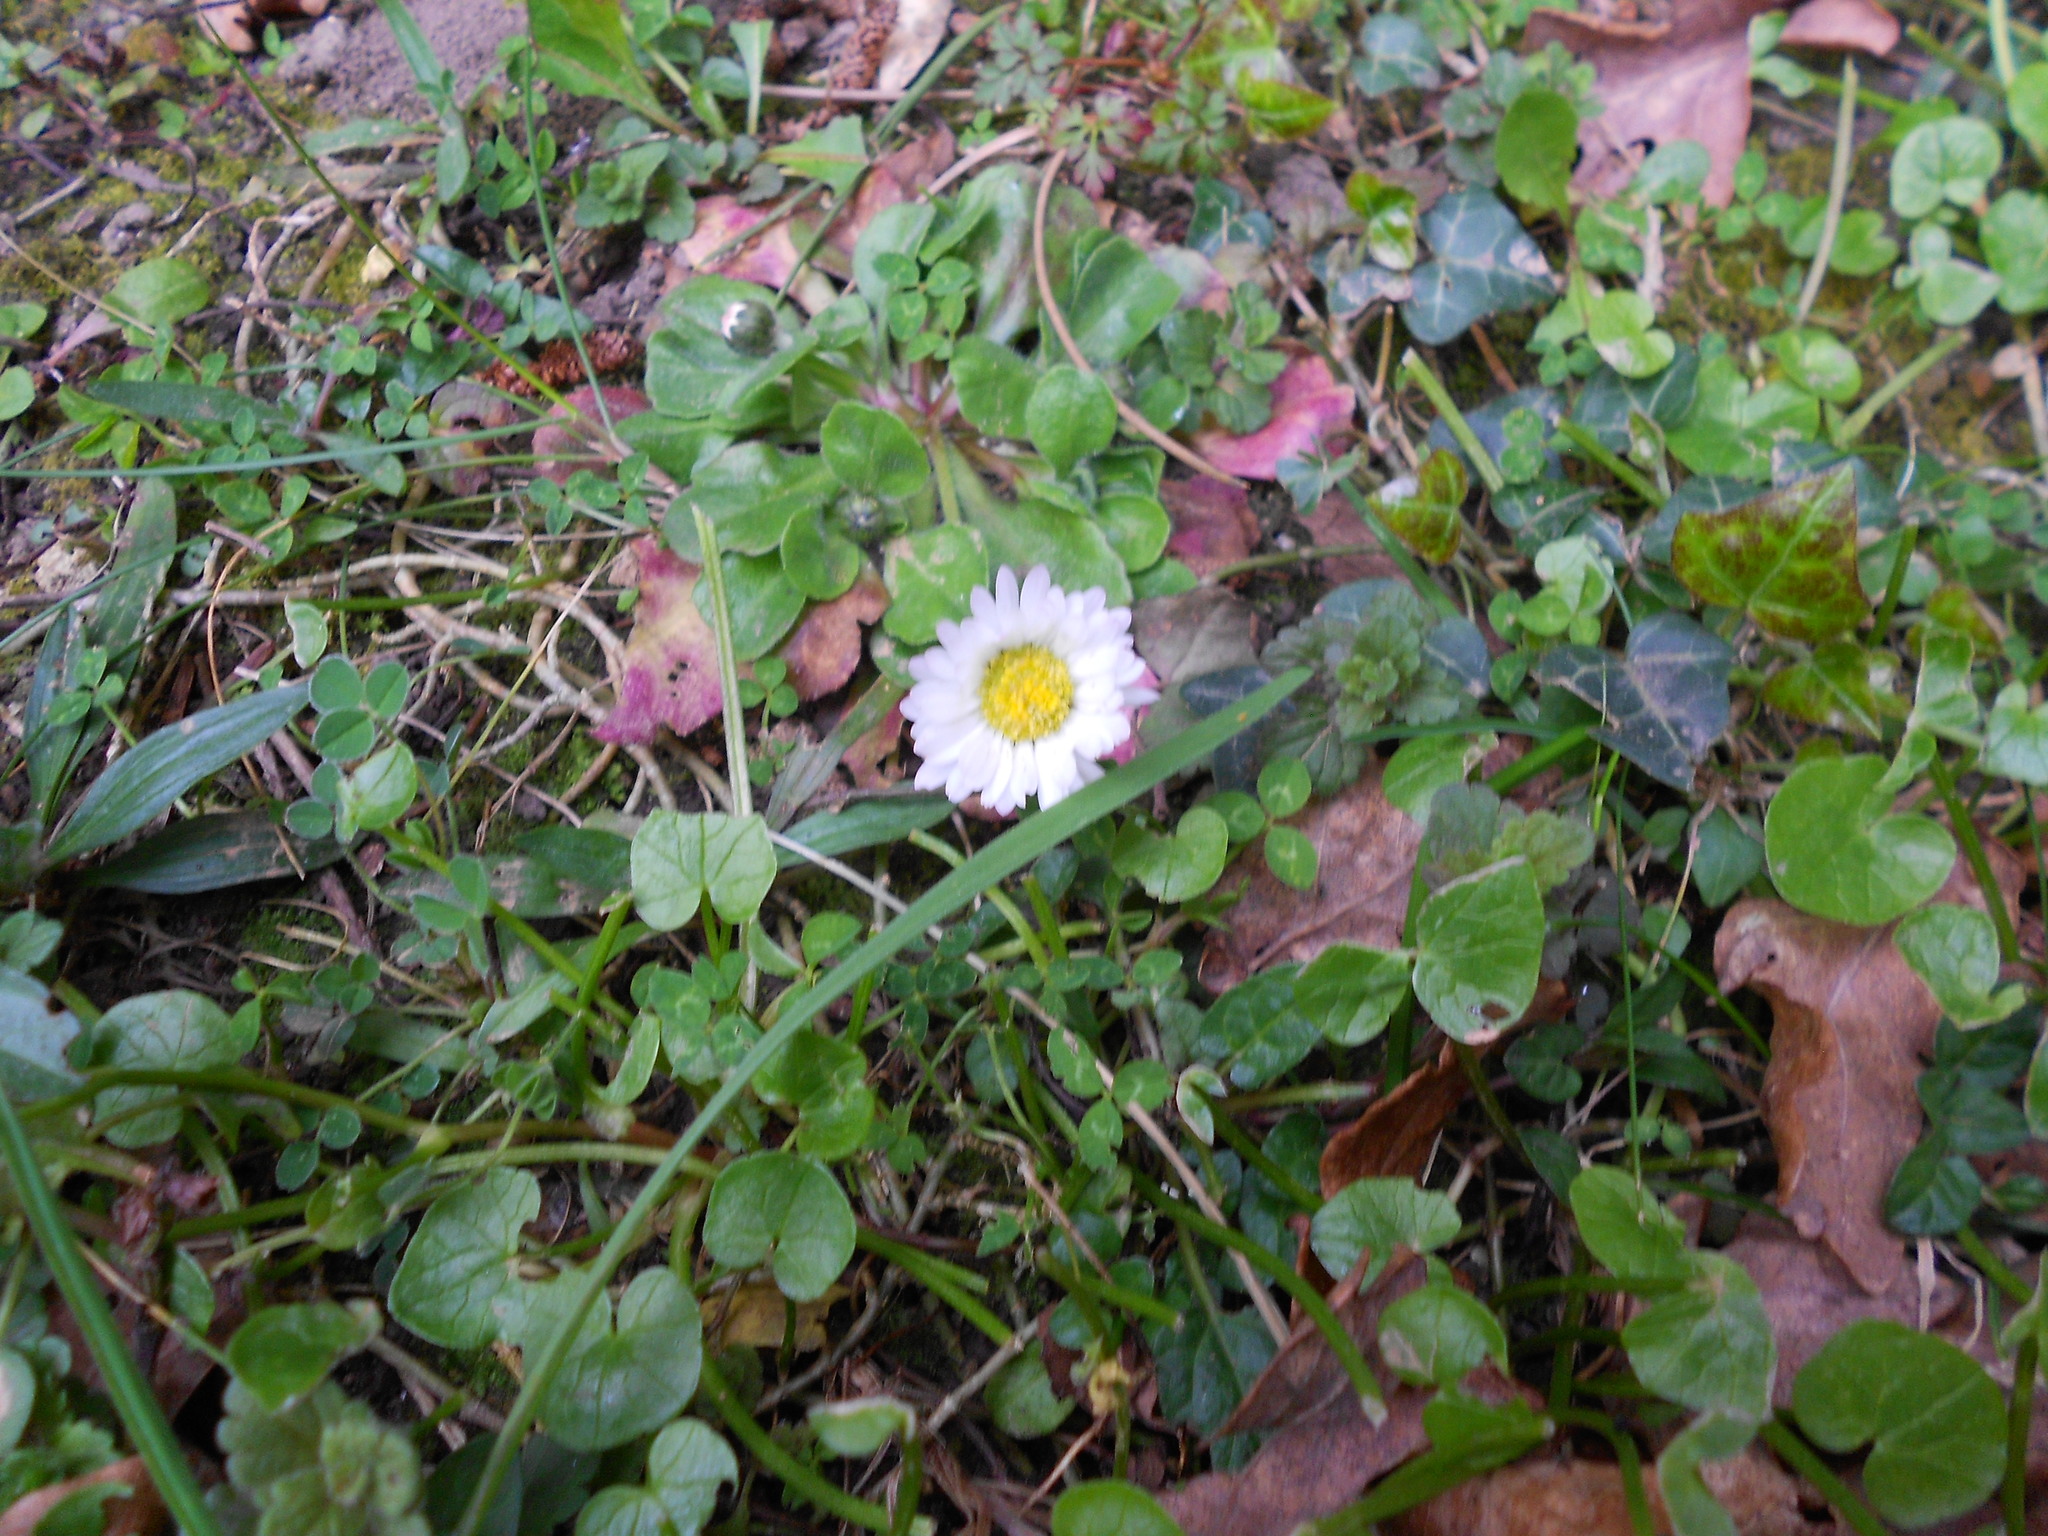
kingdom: Plantae
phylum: Tracheophyta
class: Magnoliopsida
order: Asterales
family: Asteraceae
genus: Bellis
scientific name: Bellis perennis
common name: Lawndaisy
